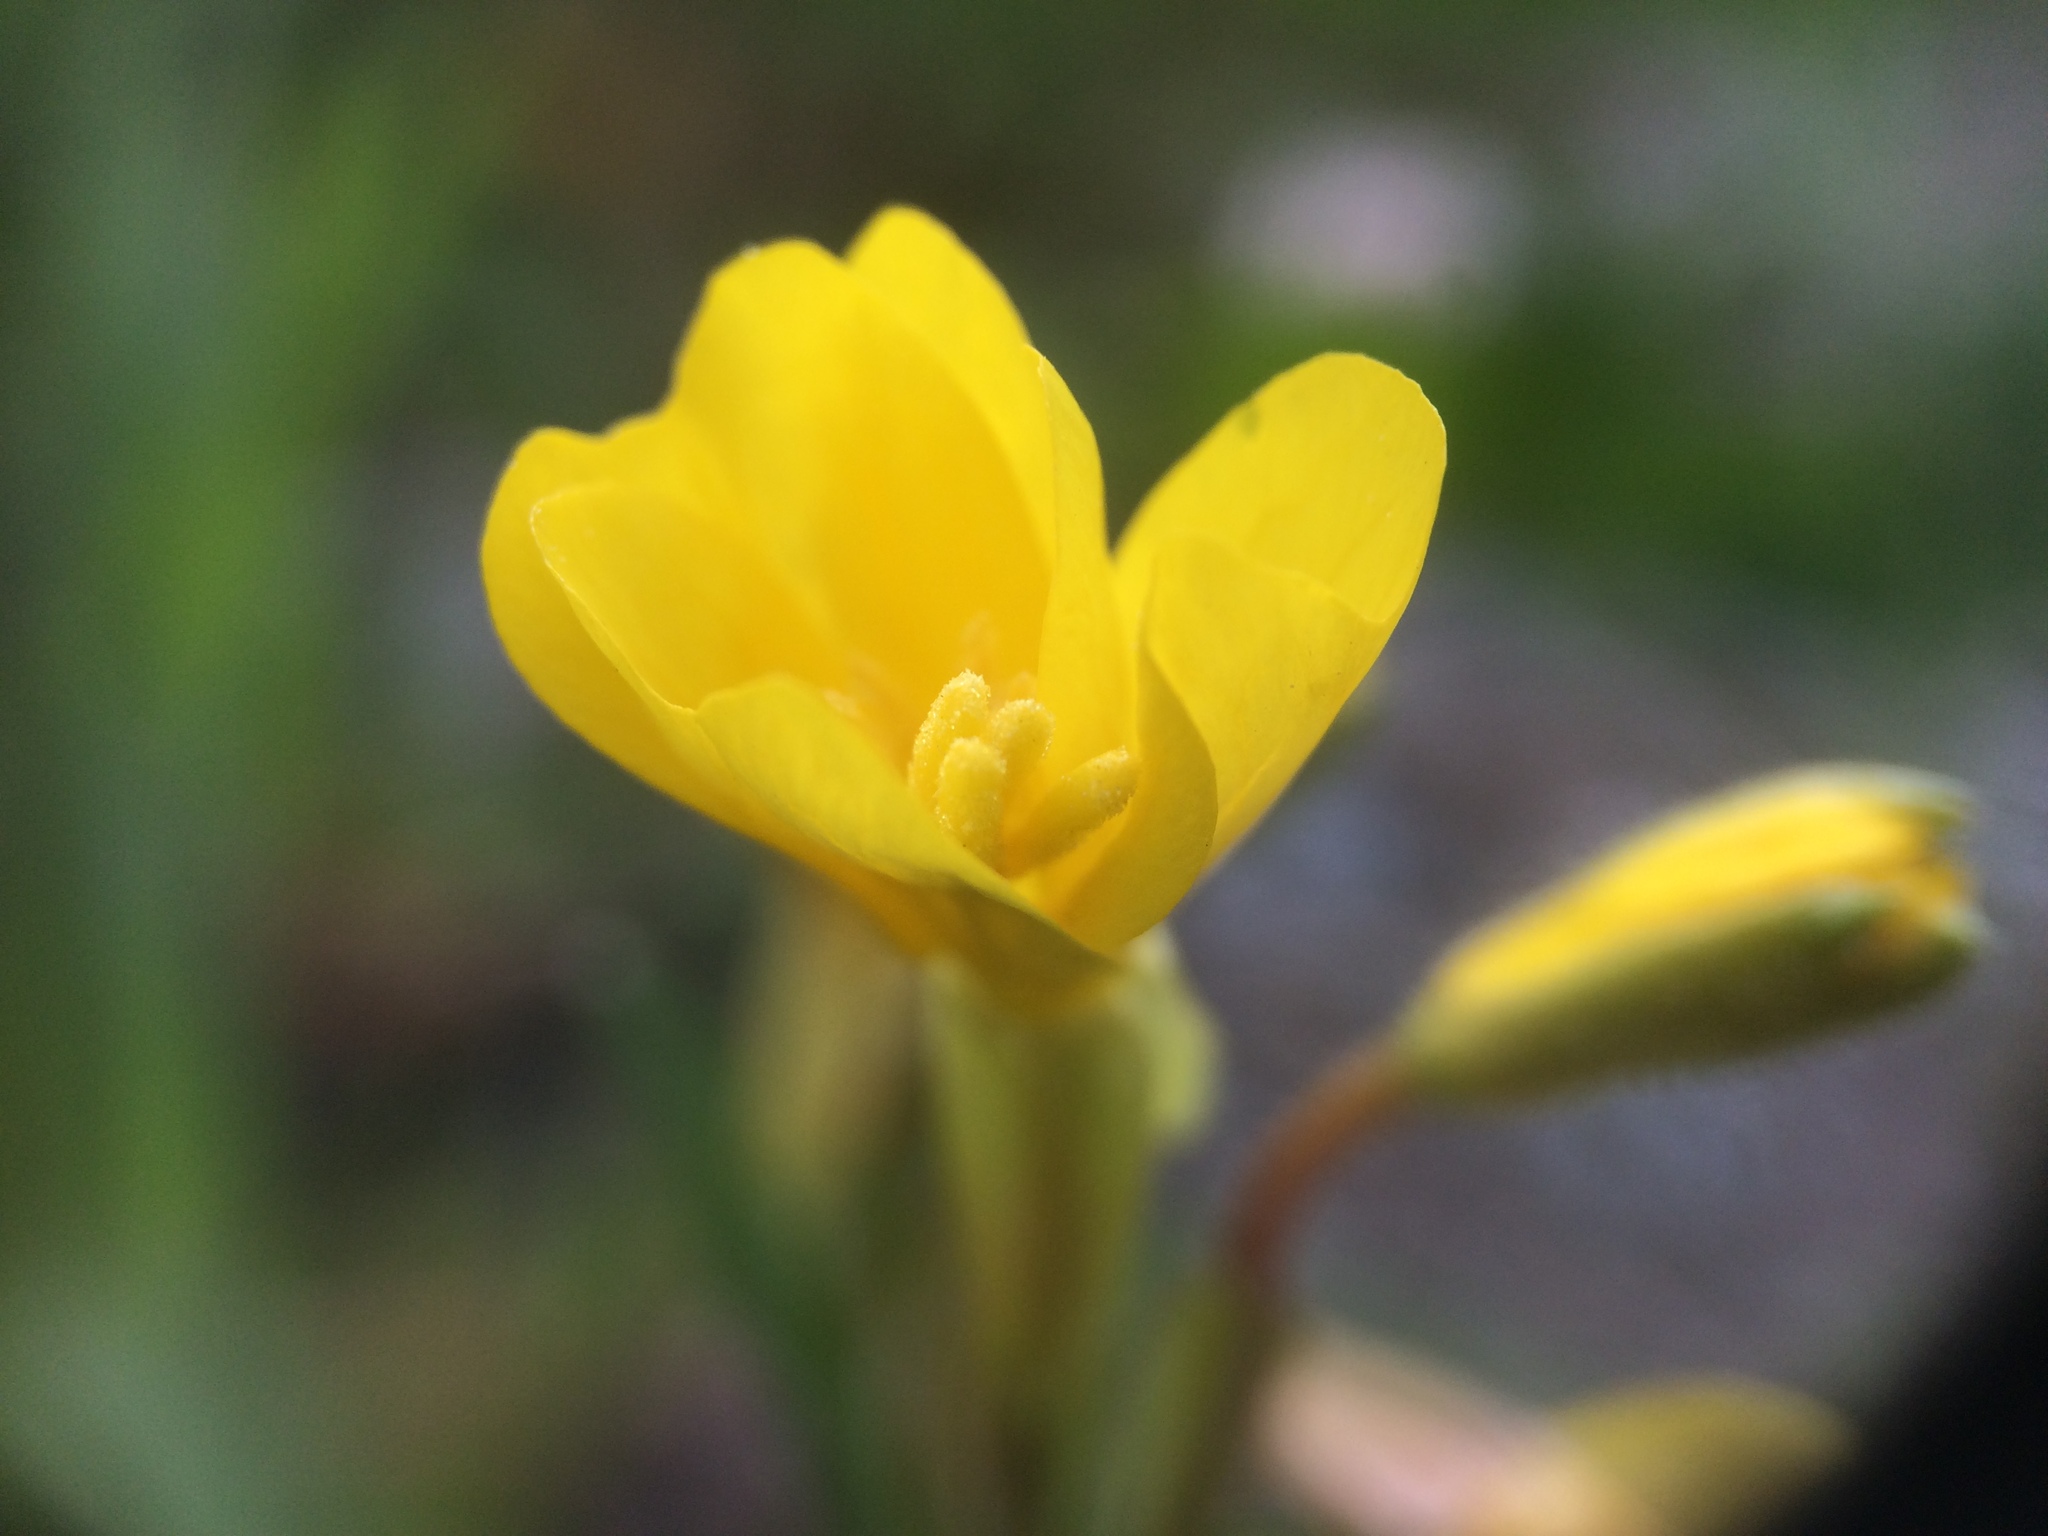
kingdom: Plantae
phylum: Tracheophyta
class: Magnoliopsida
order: Myrtales
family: Onagraceae
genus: Oenothera
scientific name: Oenothera perennis
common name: Small sundrops
